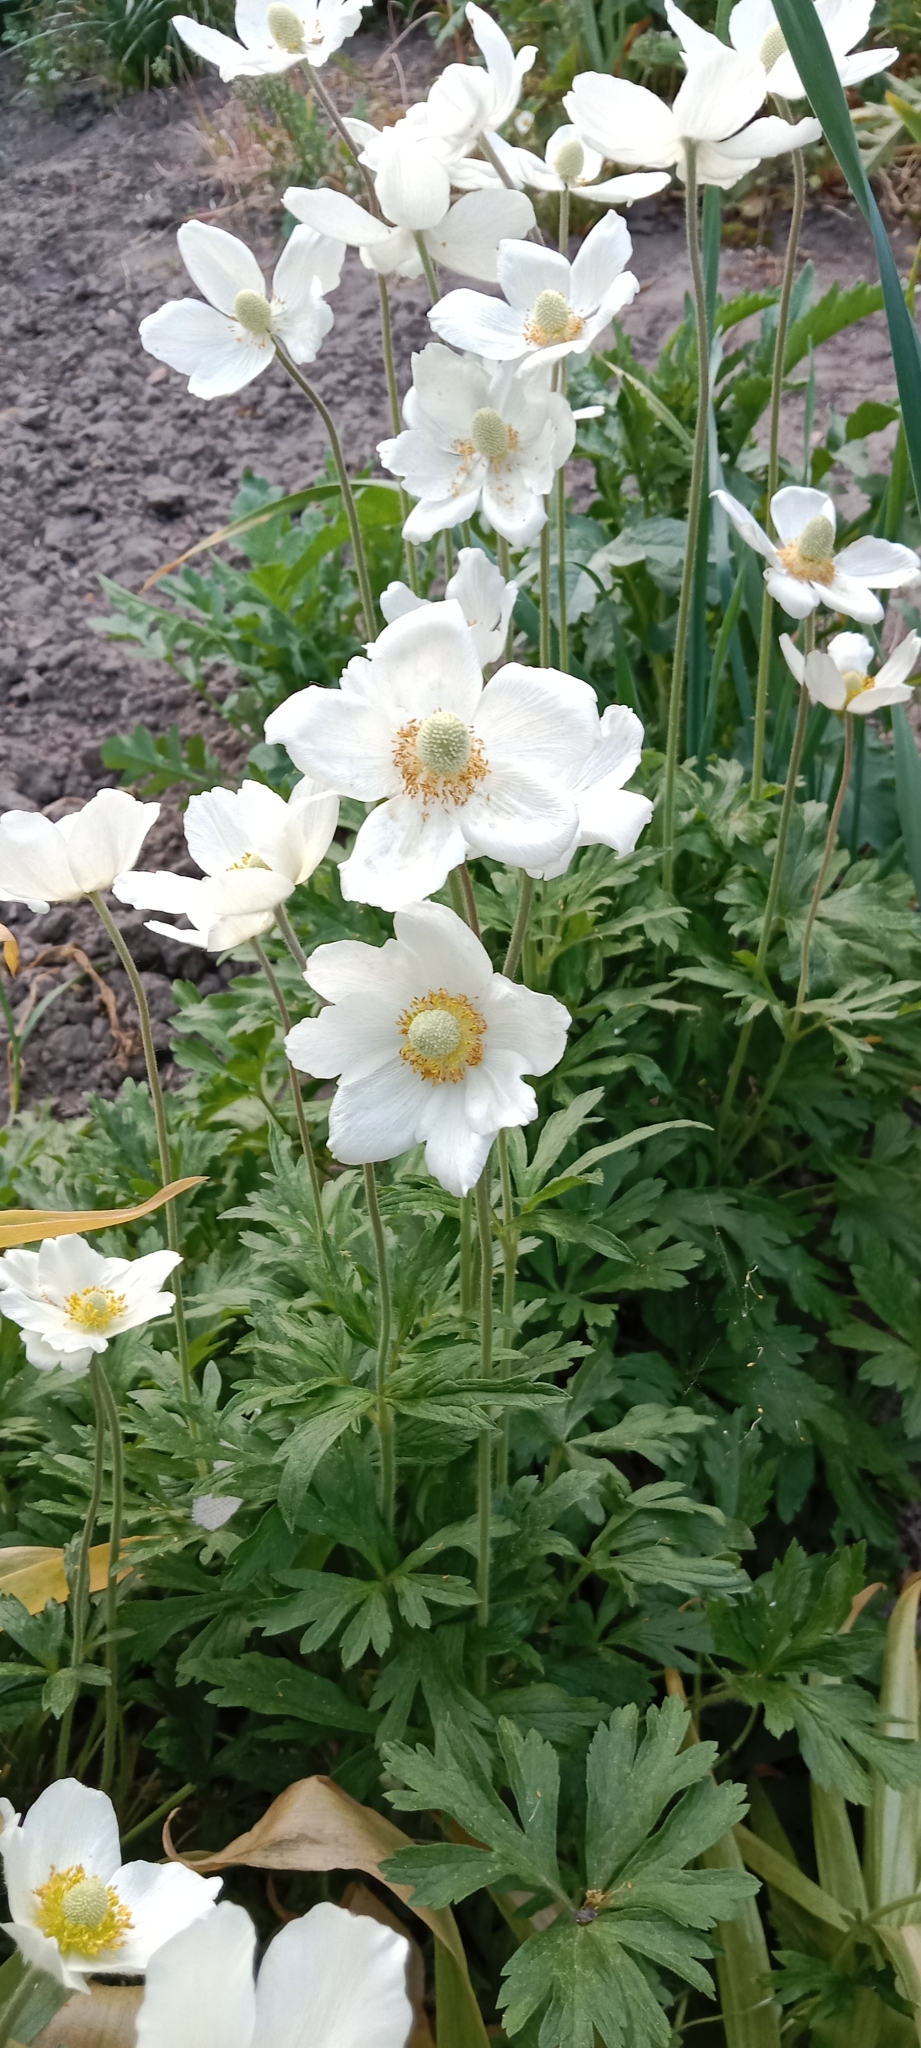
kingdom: Plantae
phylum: Tracheophyta
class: Magnoliopsida
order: Ranunculales
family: Ranunculaceae
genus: Anemone
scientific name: Anemone sylvestris
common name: Snowdrop anemone
